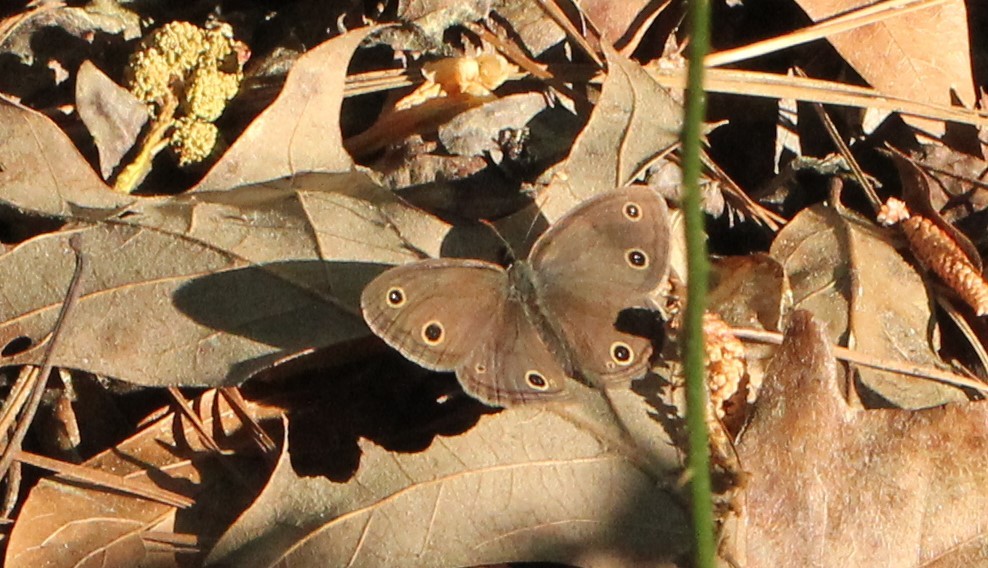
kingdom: Animalia
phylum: Arthropoda
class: Insecta
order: Lepidoptera
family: Nymphalidae
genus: Euptychia
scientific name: Euptychia cymela
